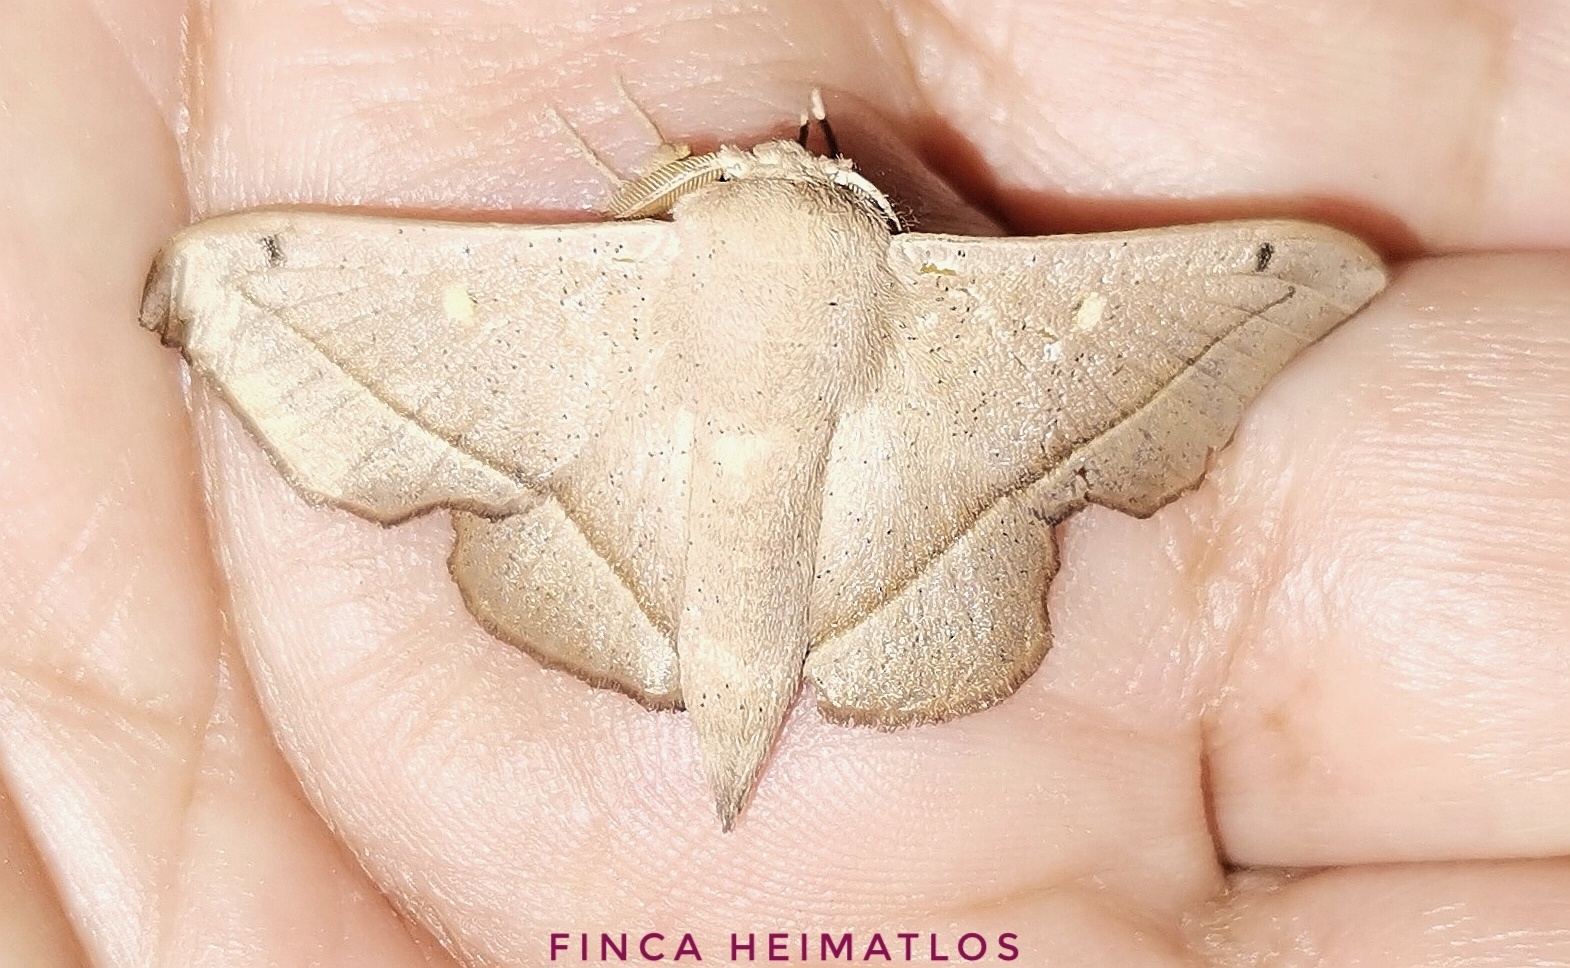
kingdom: Animalia
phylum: Arthropoda
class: Insecta
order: Lepidoptera
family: Mimallonidae
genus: Druentica
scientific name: Druentica partha
